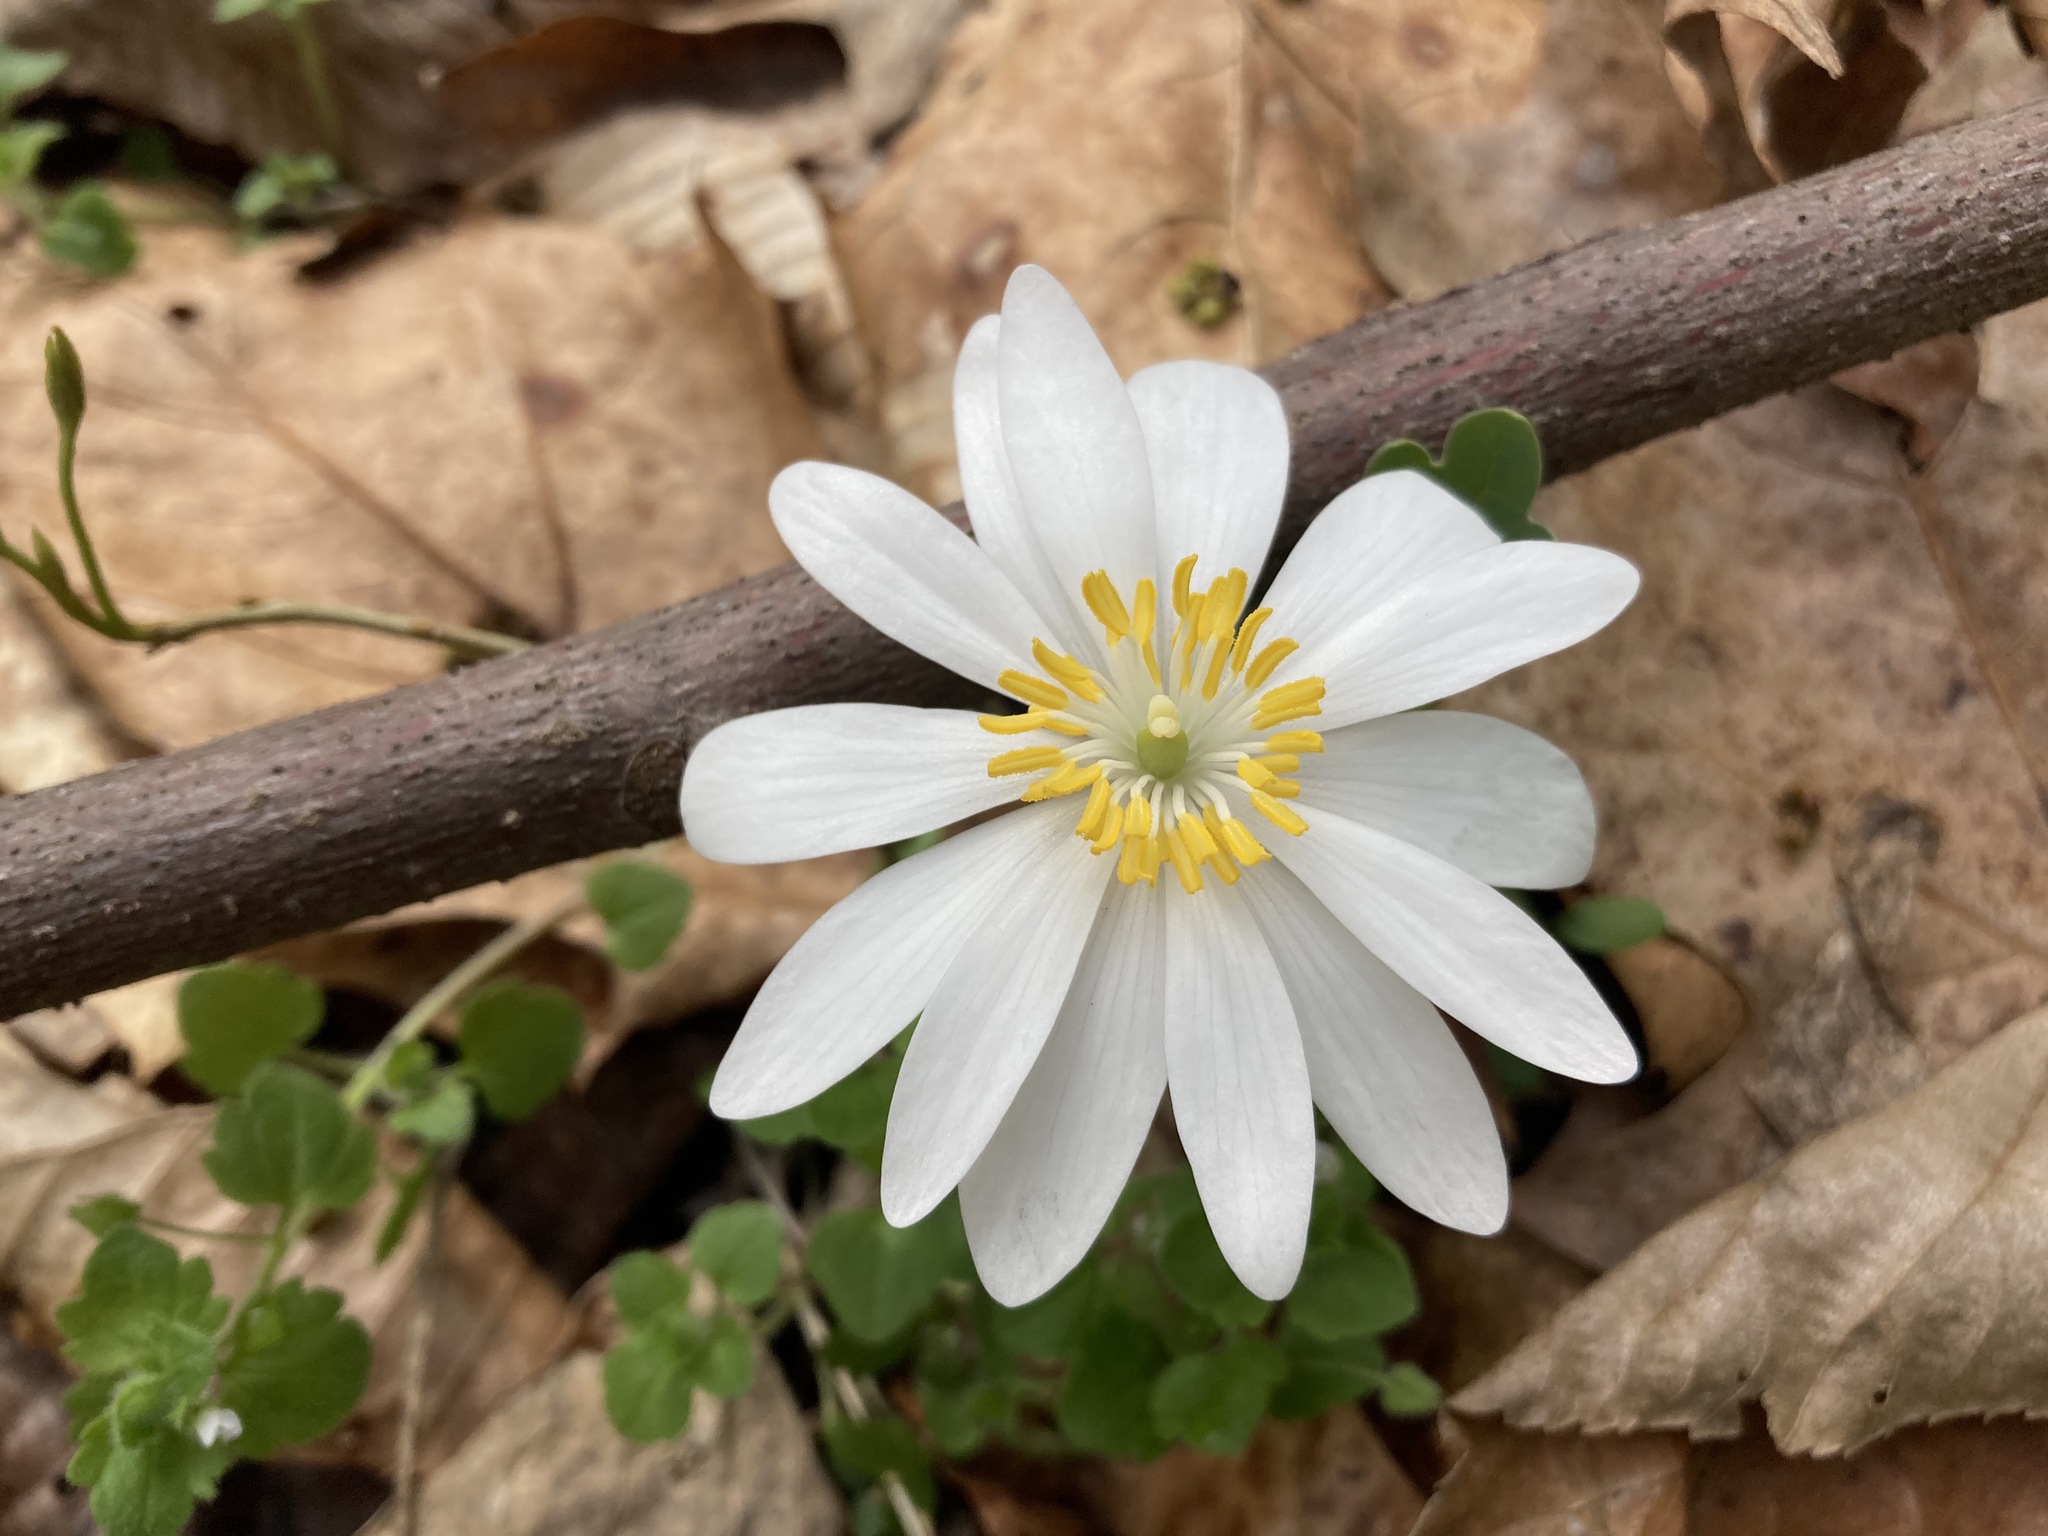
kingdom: Plantae
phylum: Tracheophyta
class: Magnoliopsida
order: Ranunculales
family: Papaveraceae
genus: Sanguinaria
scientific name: Sanguinaria canadensis
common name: Bloodroot
